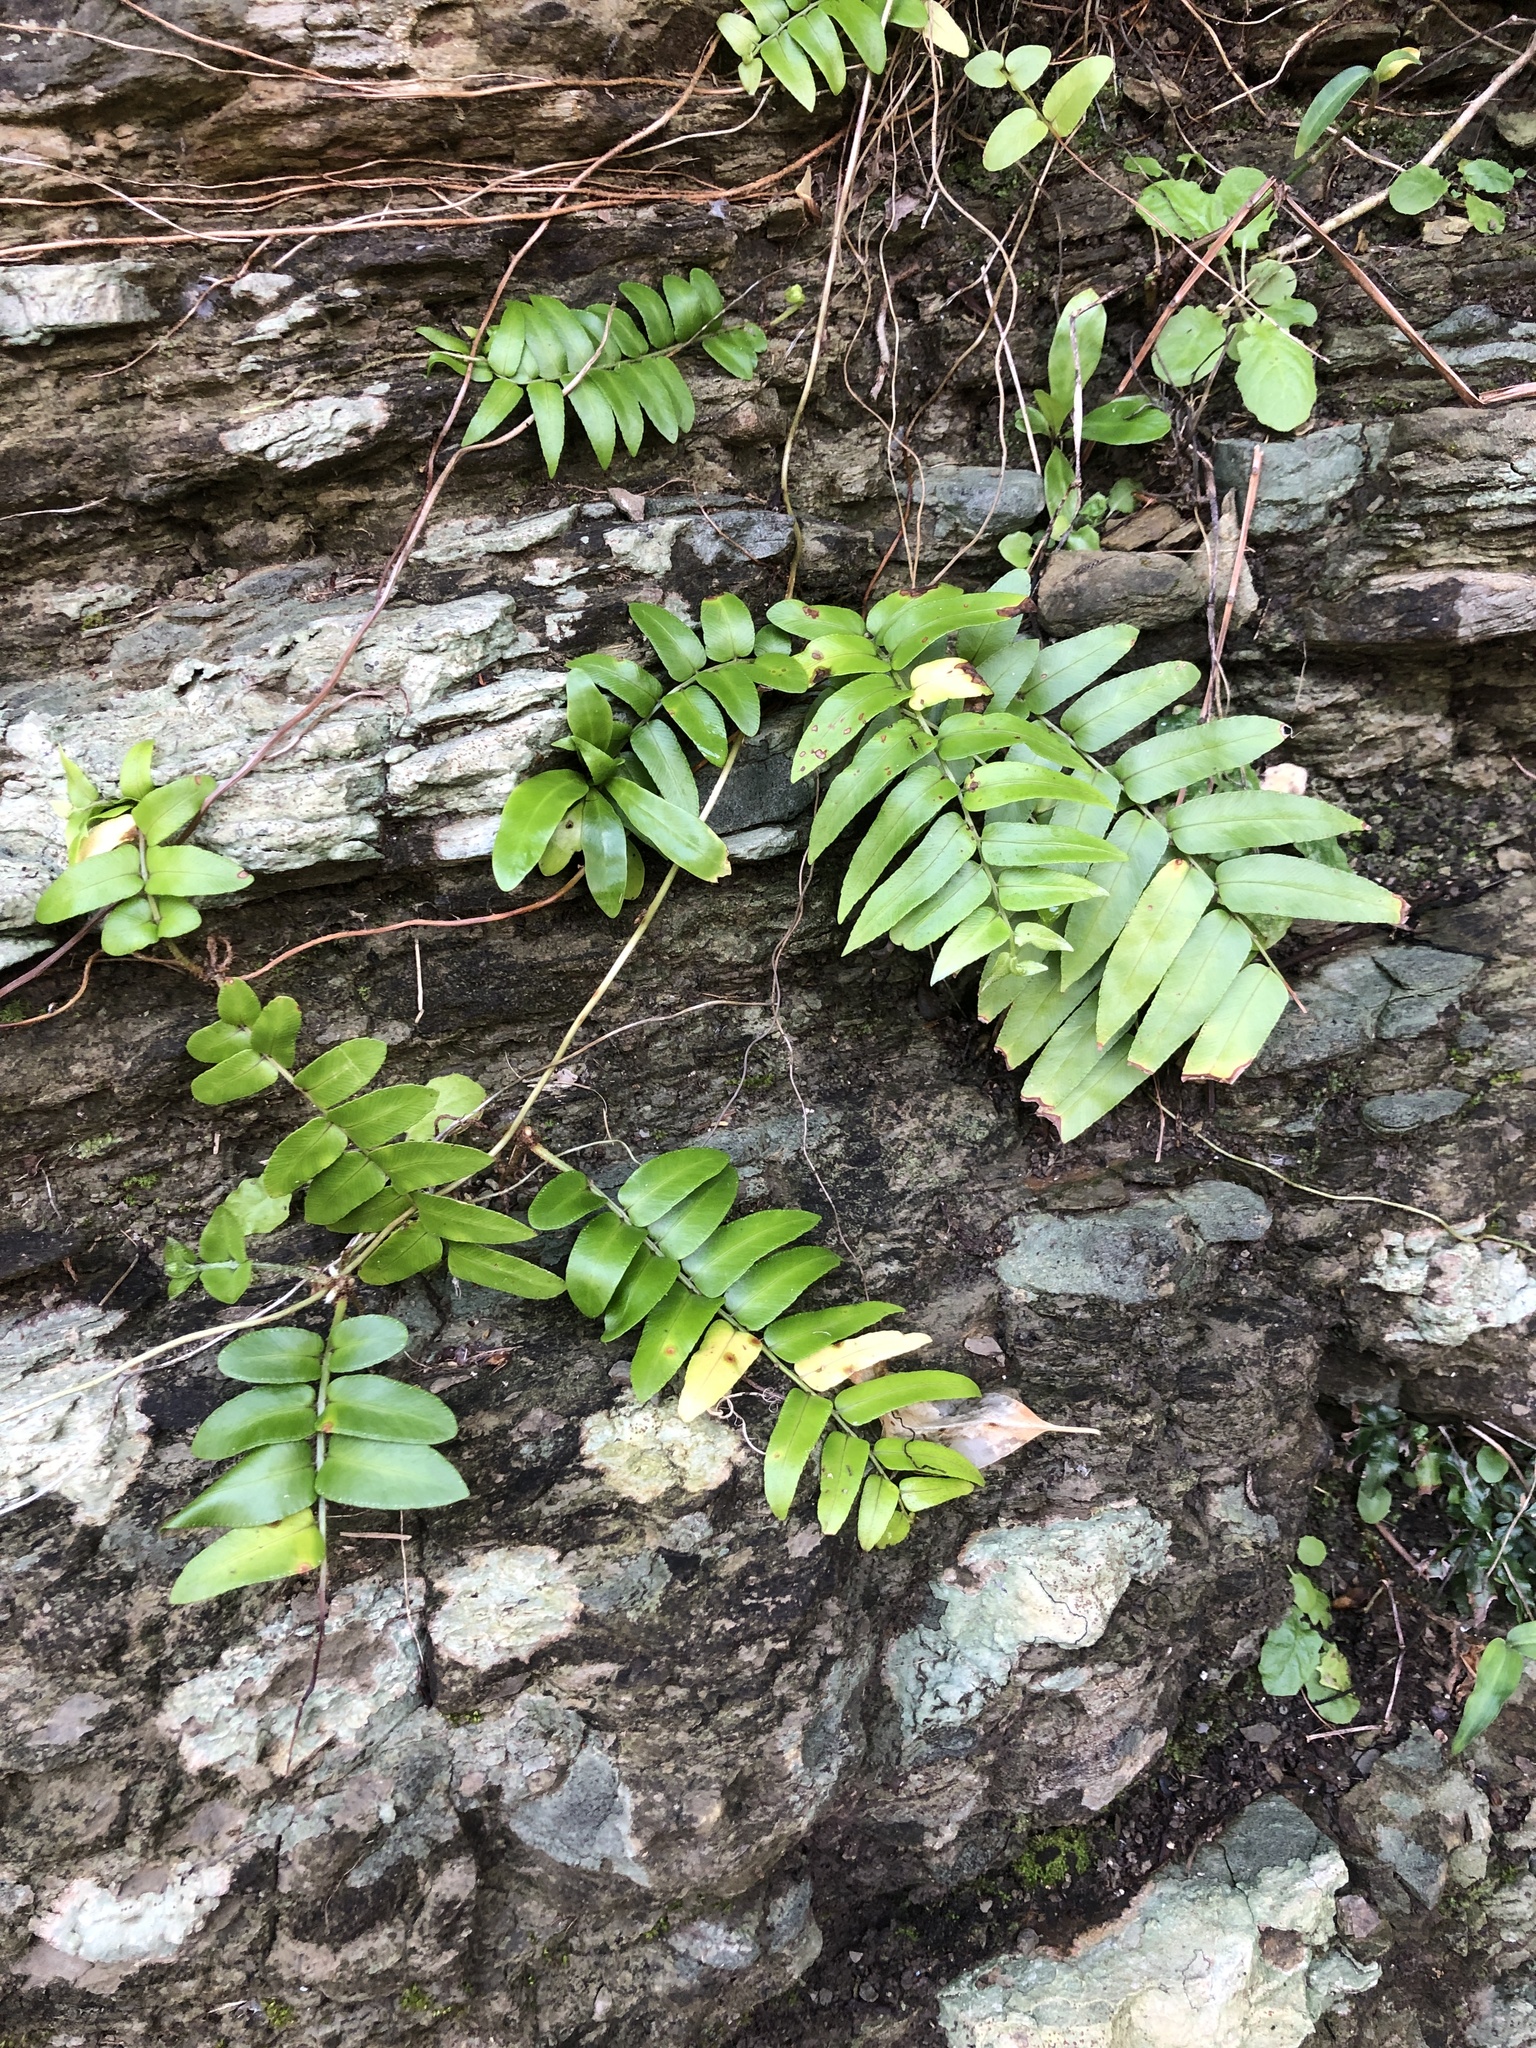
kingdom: Plantae
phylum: Tracheophyta
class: Polypodiopsida
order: Polypodiales
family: Nephrolepidaceae
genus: Nephrolepis
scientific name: Nephrolepis biserrata
